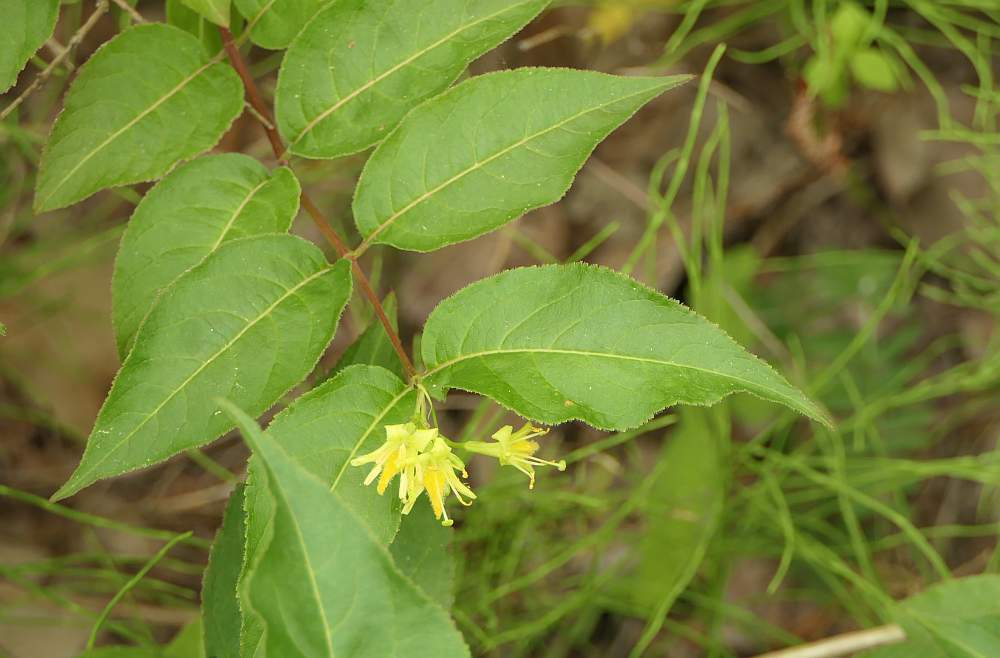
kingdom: Plantae
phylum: Tracheophyta
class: Magnoliopsida
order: Dipsacales
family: Caprifoliaceae
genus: Diervilla
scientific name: Diervilla lonicera
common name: Bush-honeysuckle
